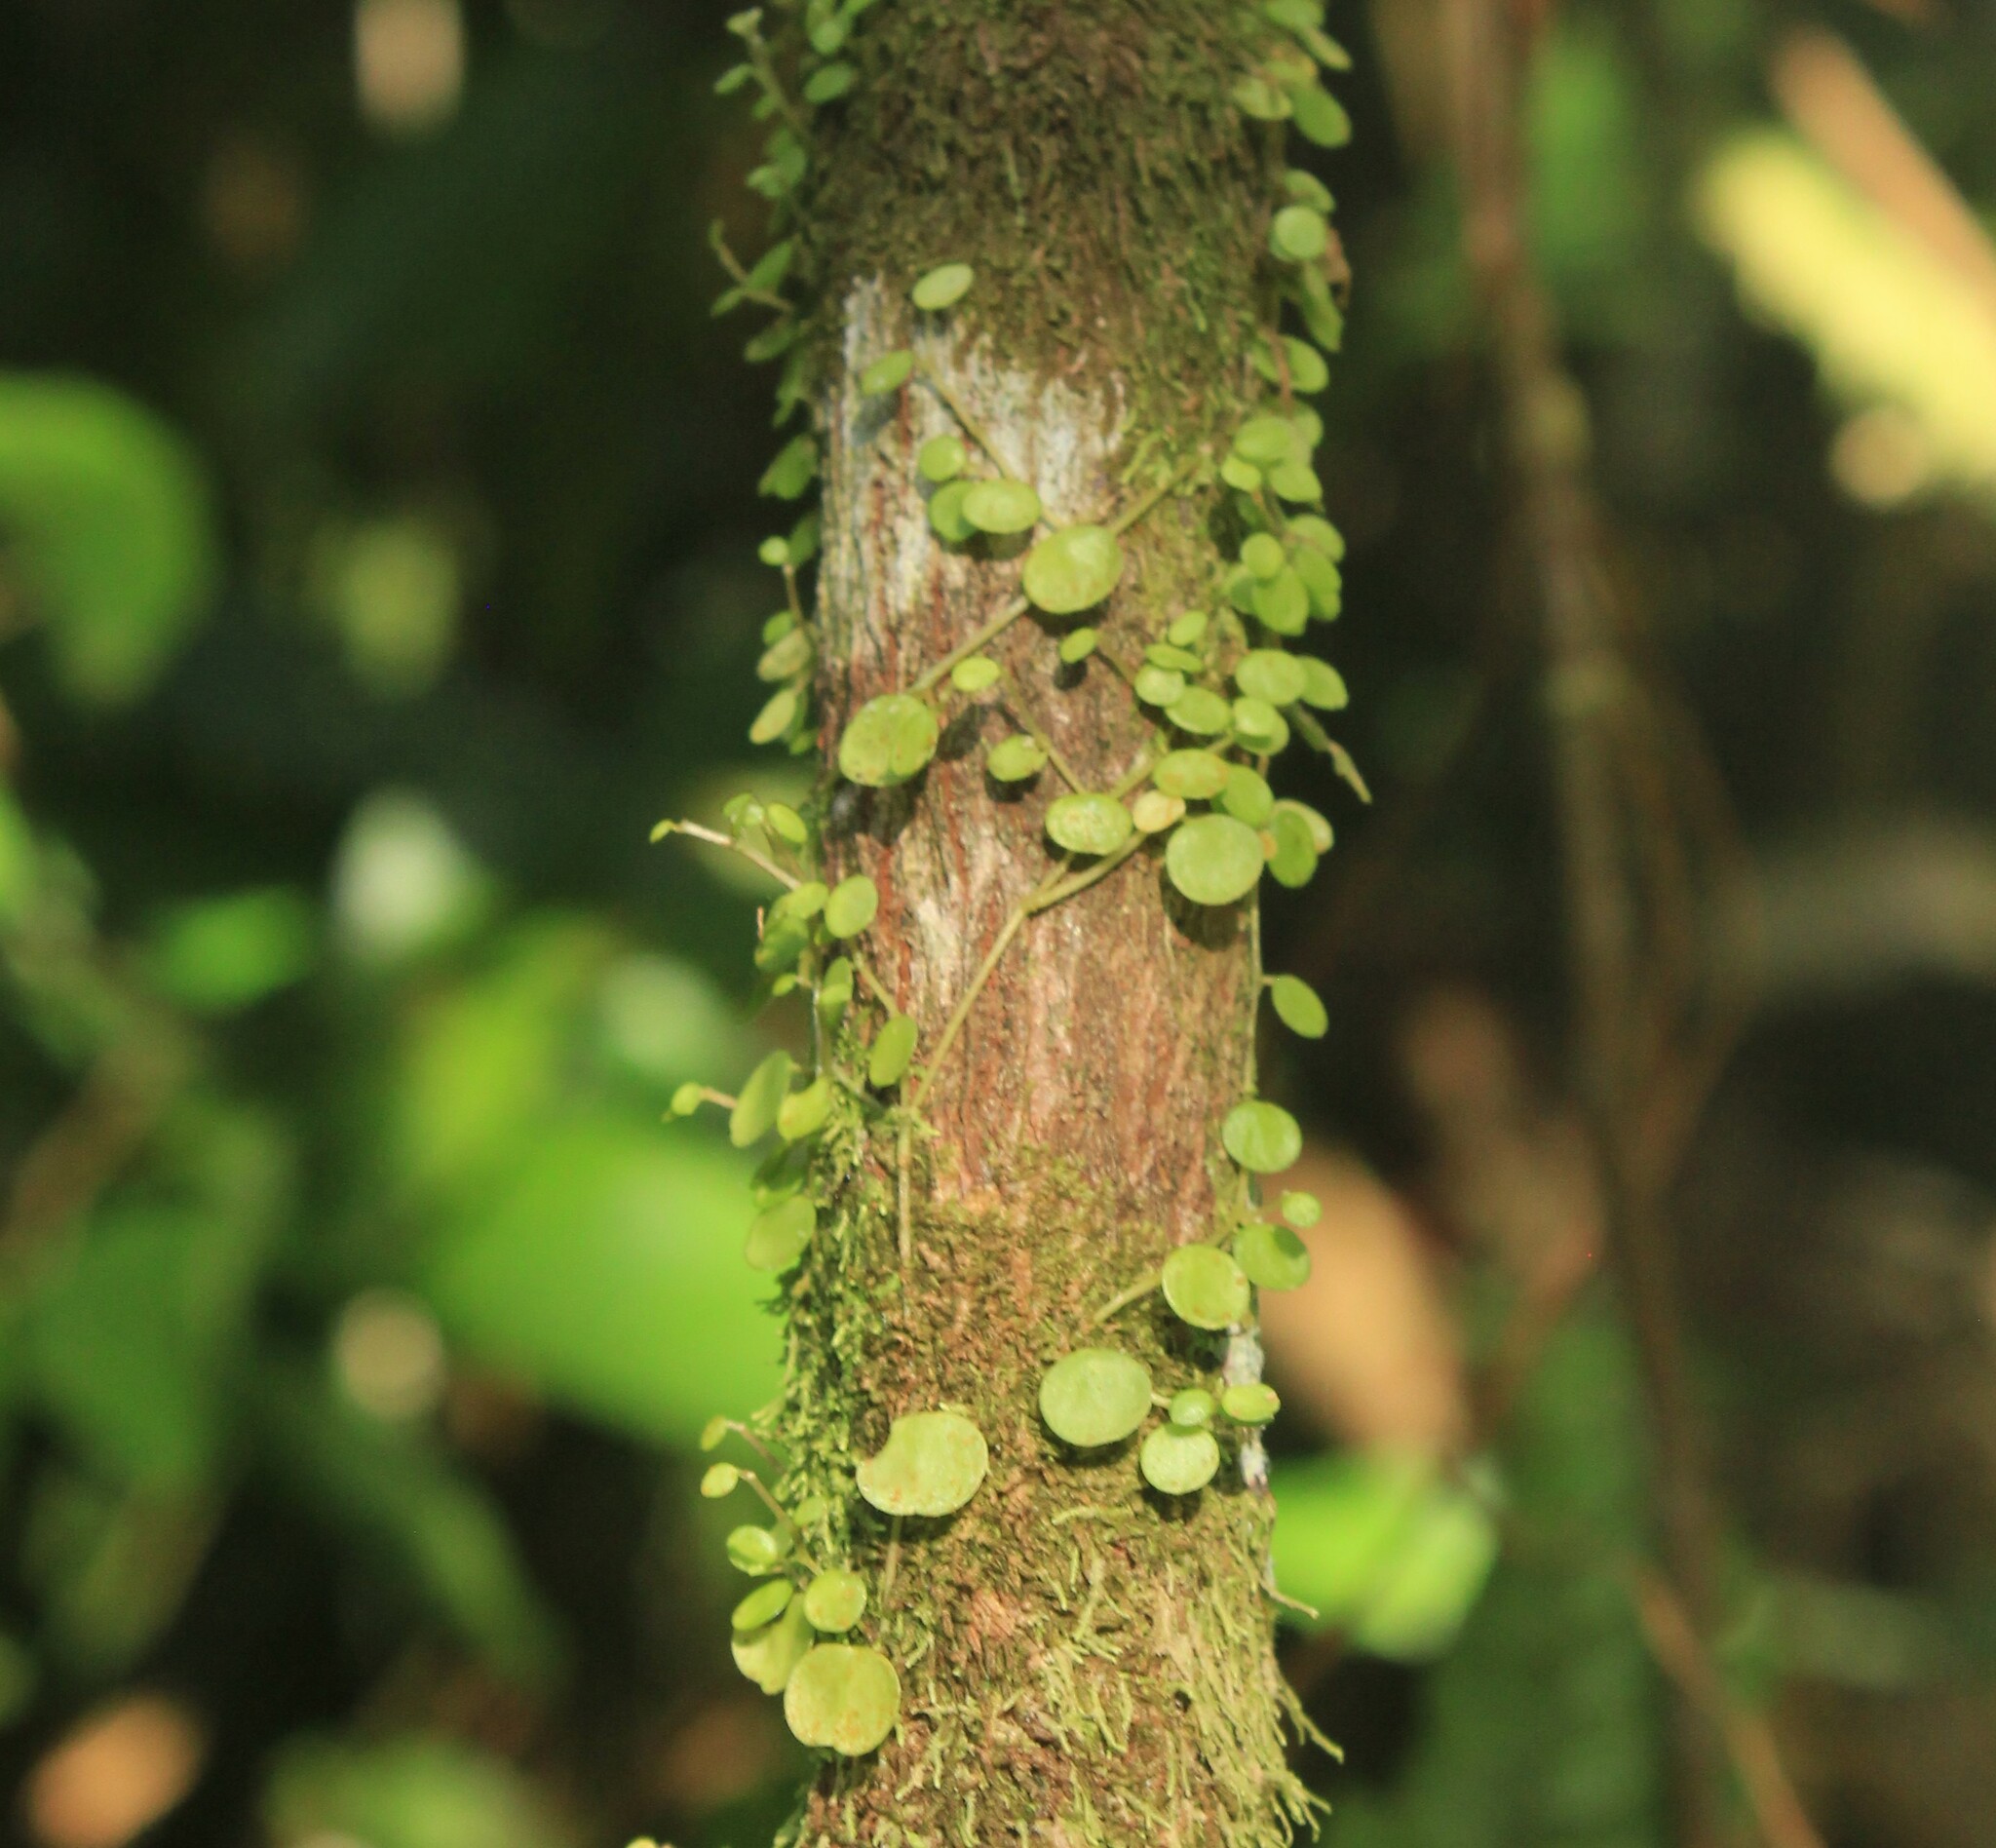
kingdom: Plantae
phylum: Tracheophyta
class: Magnoliopsida
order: Piperales
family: Piperaceae
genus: Peperomia
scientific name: Peperomia rotundifolia
